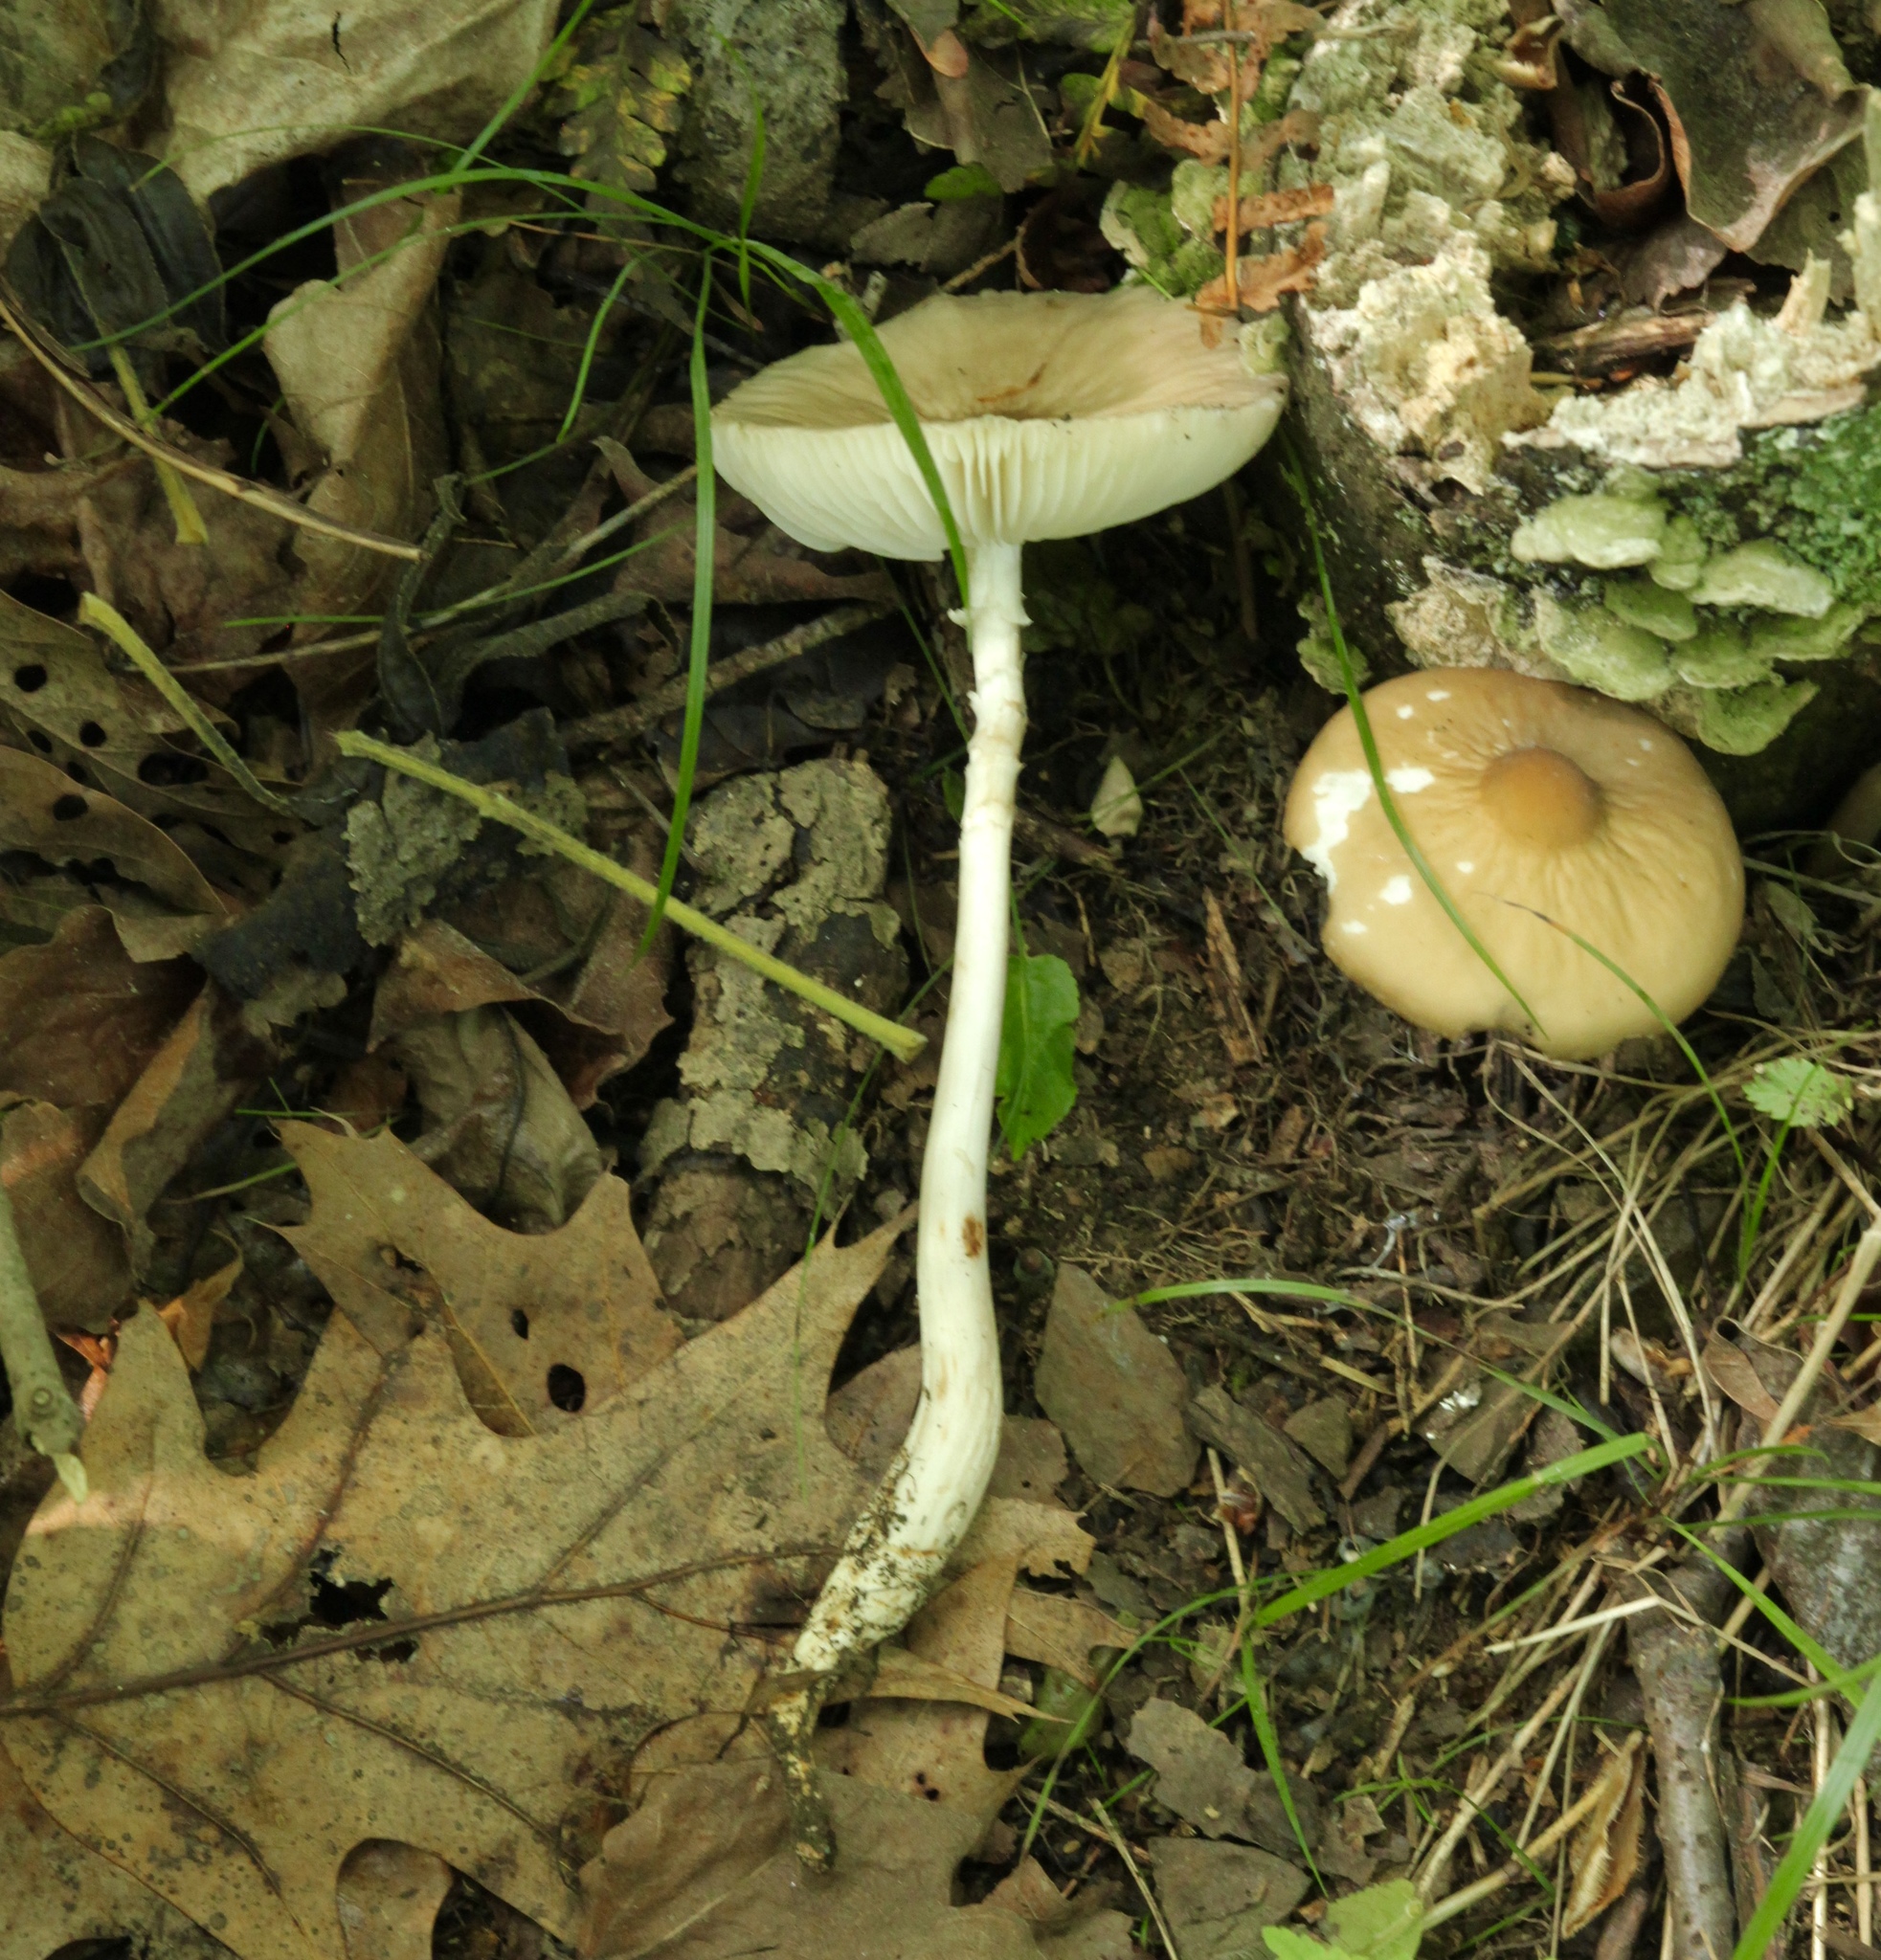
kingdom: Fungi
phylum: Basidiomycota
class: Agaricomycetes
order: Agaricales
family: Physalacriaceae
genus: Hymenopellis
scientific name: Hymenopellis megalospora
